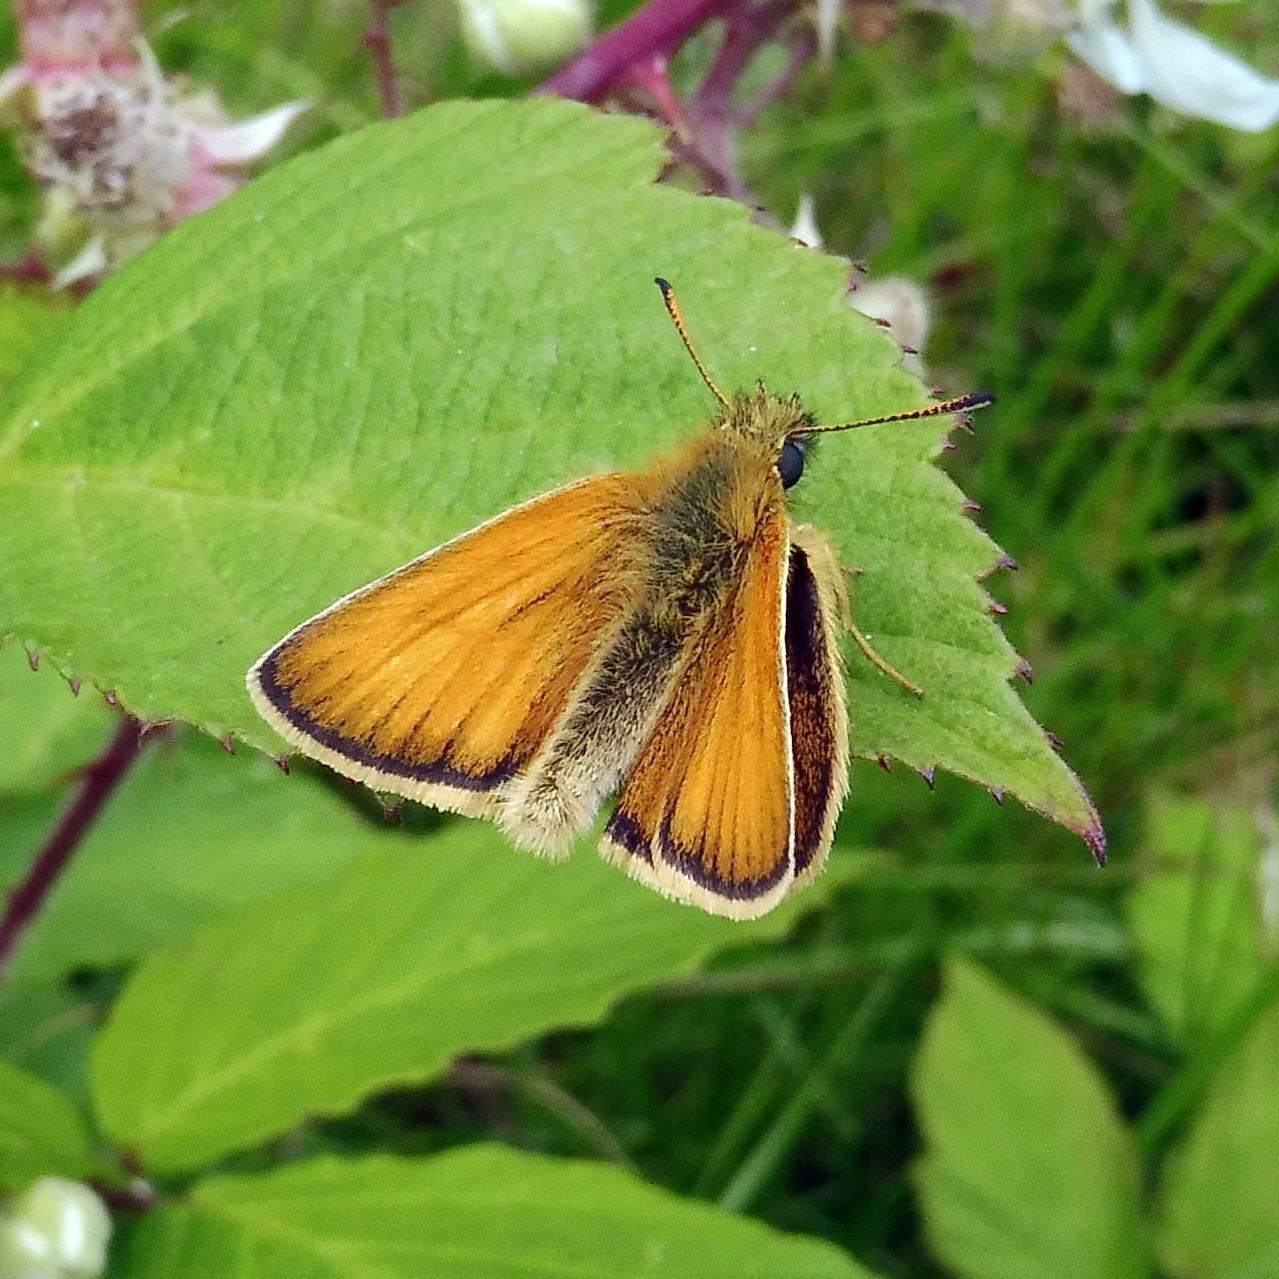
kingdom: Animalia
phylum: Arthropoda
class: Insecta
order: Lepidoptera
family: Hesperiidae
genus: Thymelicus
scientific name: Thymelicus lineola
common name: Essex skipper
